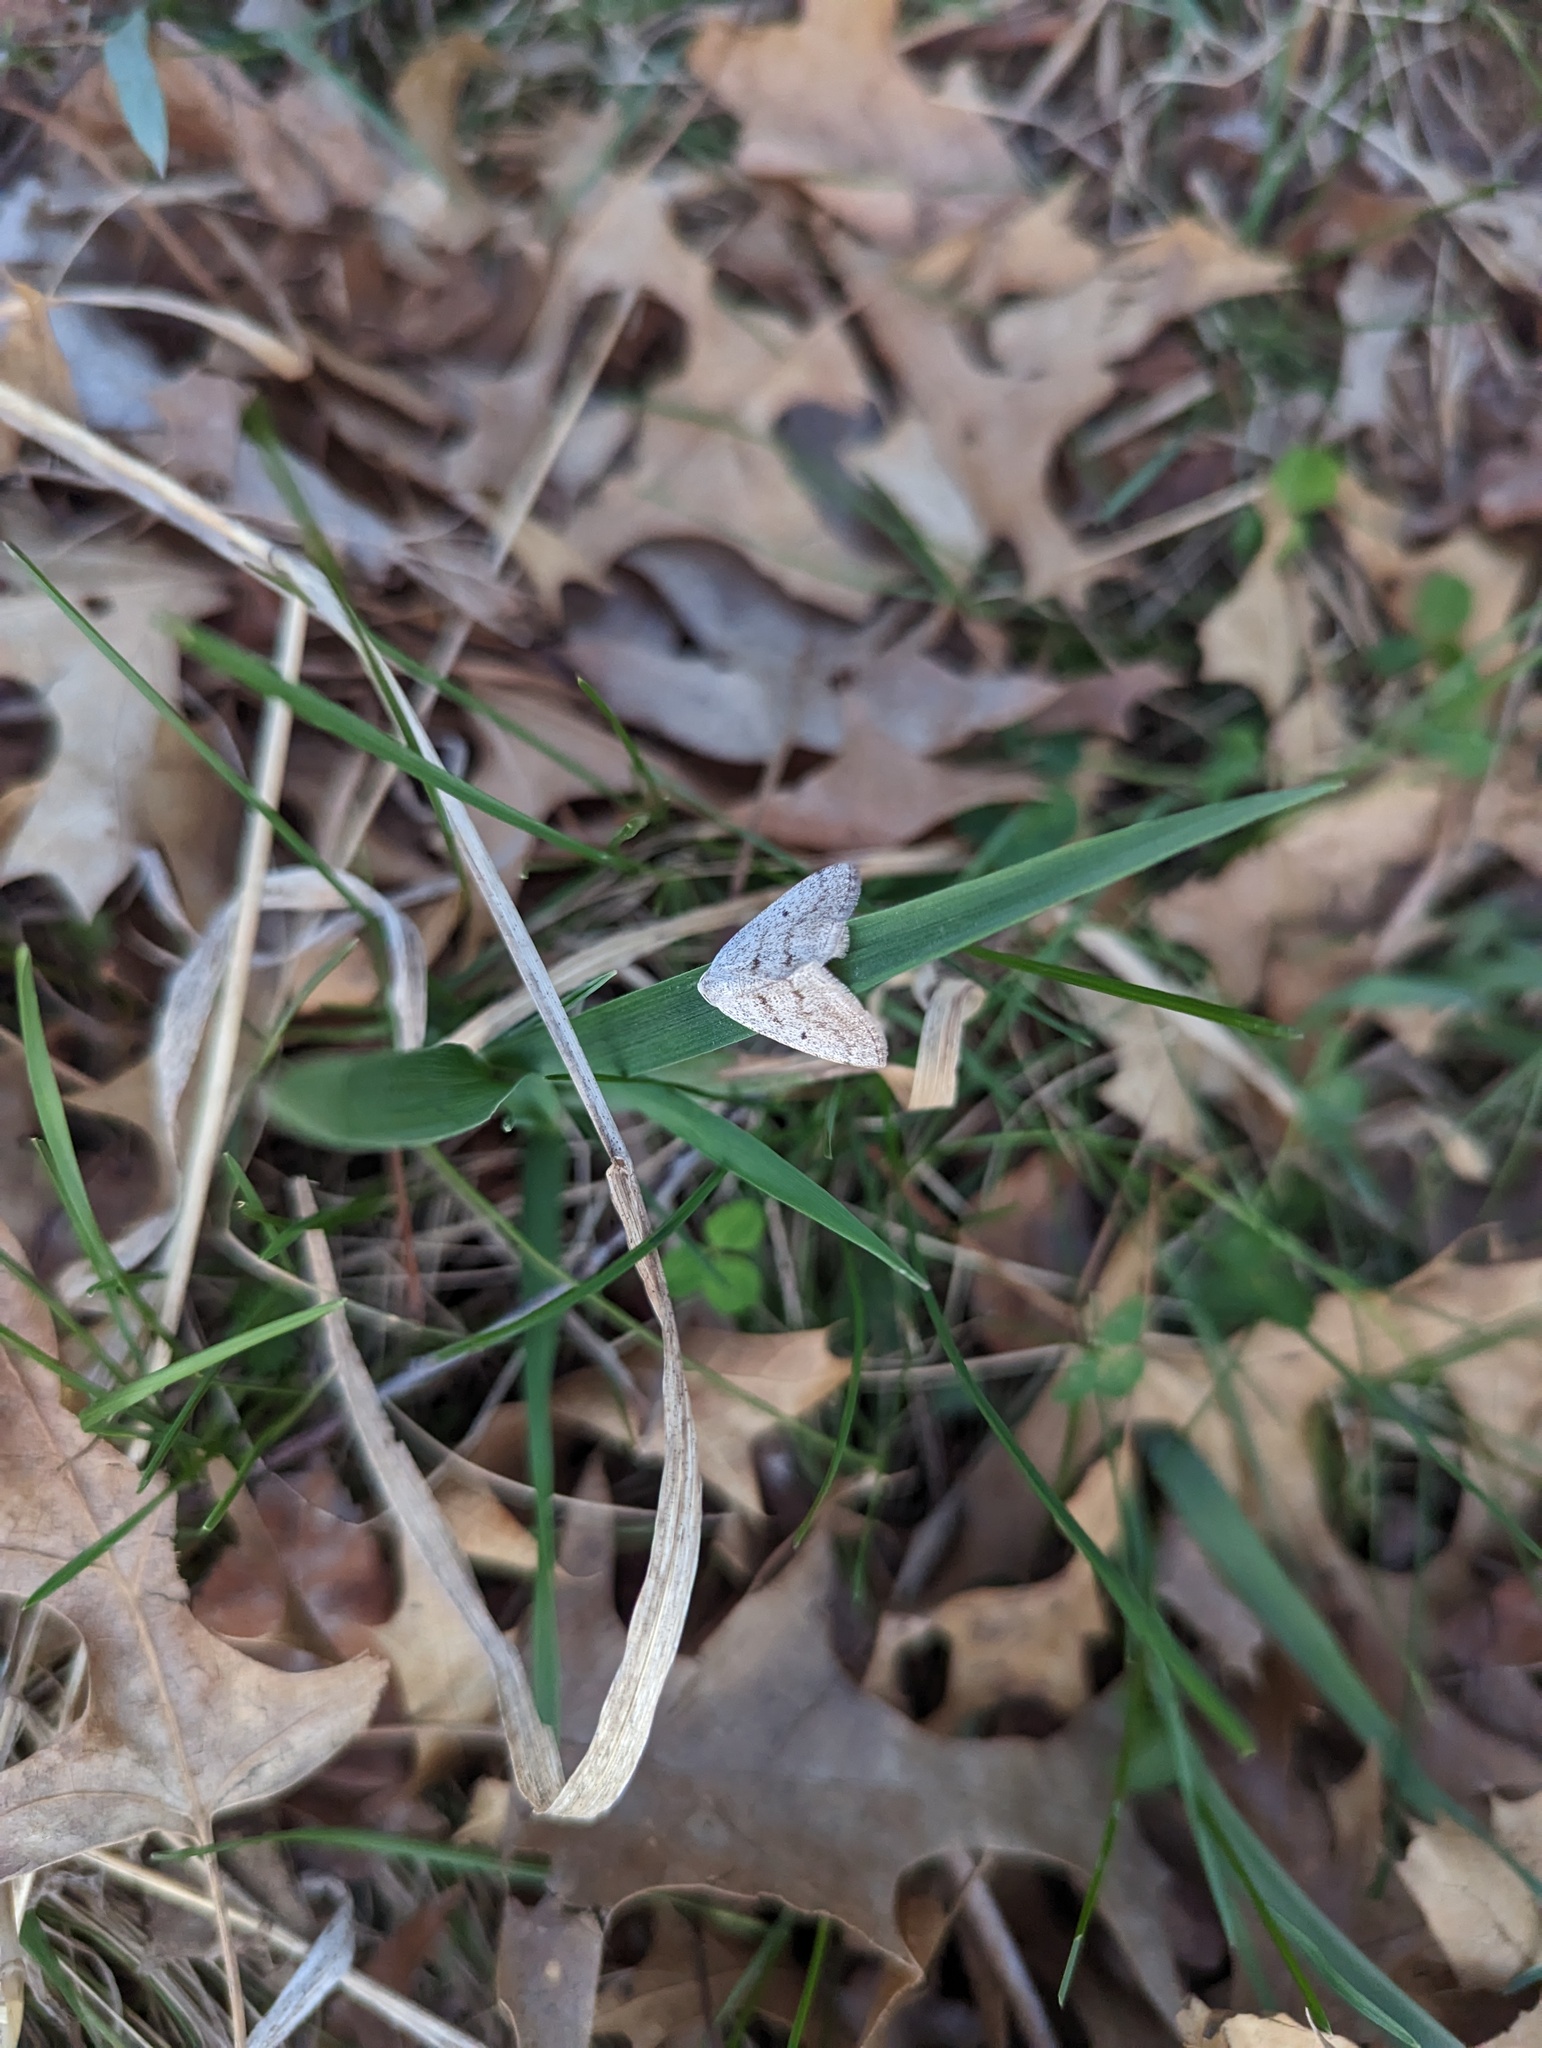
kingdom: Animalia
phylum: Arthropoda
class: Insecta
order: Lepidoptera
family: Geometridae
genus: Lomographa
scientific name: Lomographa glomeraria
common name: Gray spring moth
